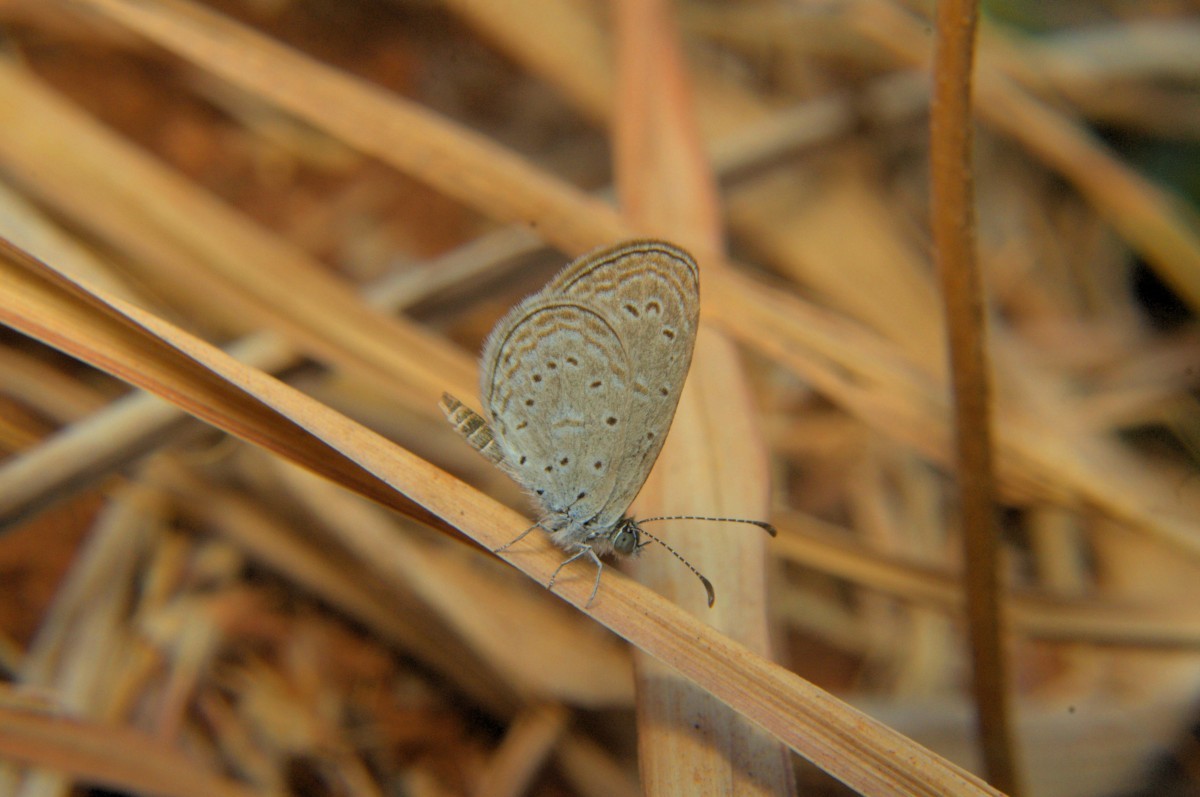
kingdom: Animalia
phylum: Arthropoda
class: Insecta
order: Lepidoptera
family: Lycaenidae
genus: Zizula
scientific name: Zizula hylax
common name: Gaika blue
